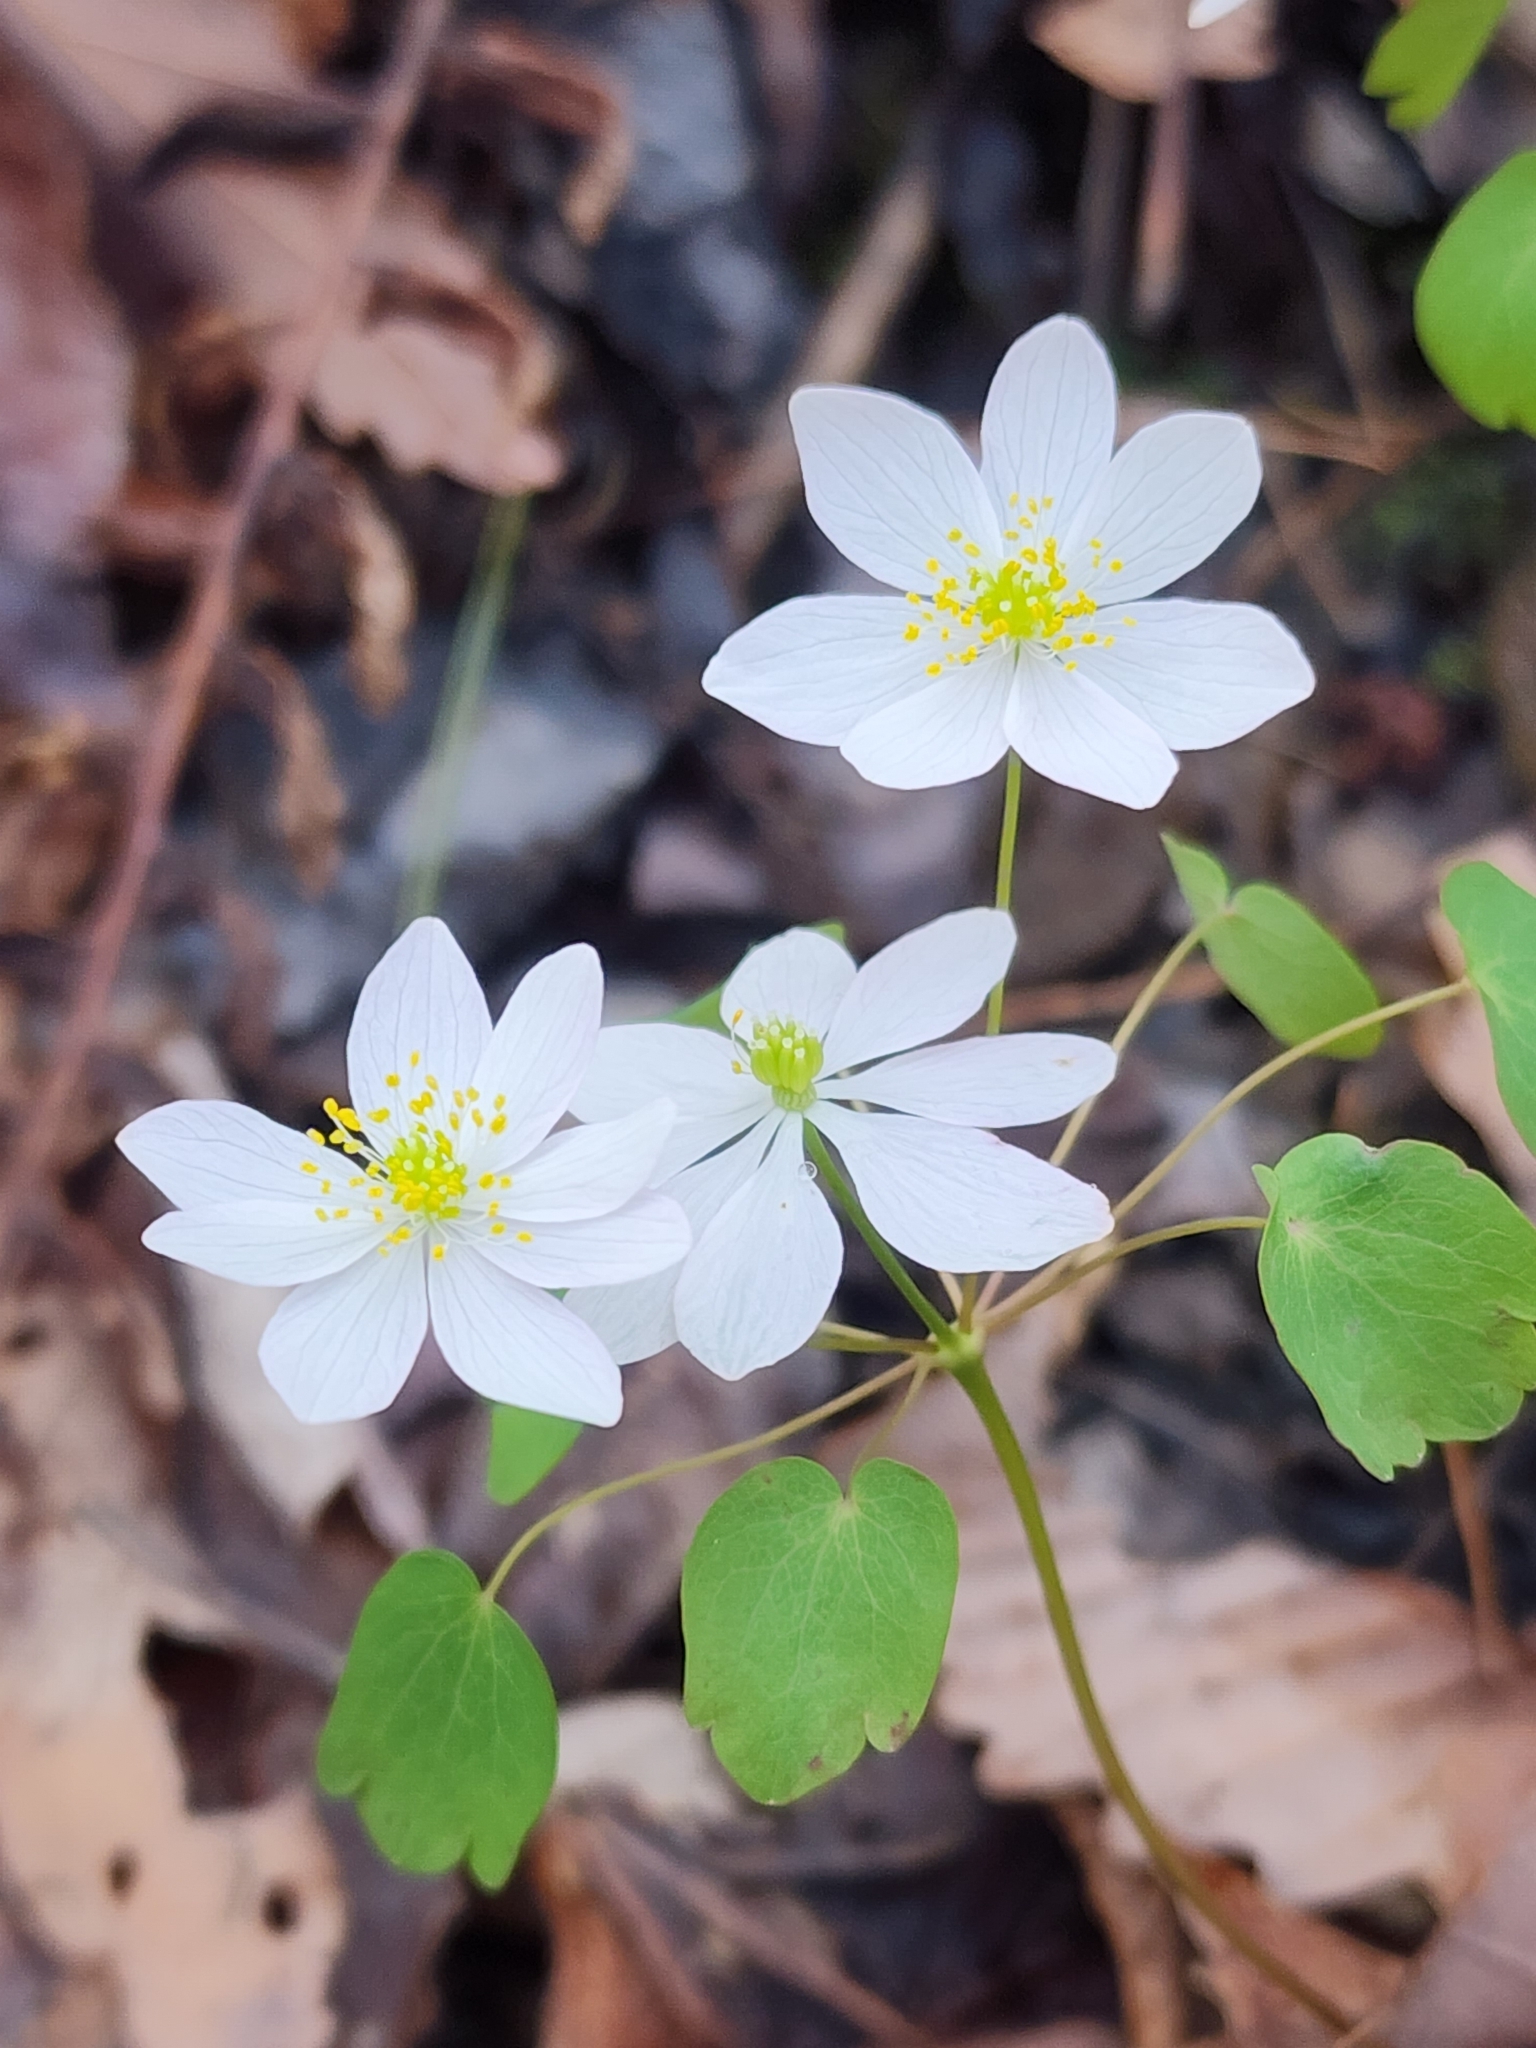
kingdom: Plantae
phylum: Tracheophyta
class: Magnoliopsida
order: Ranunculales
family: Ranunculaceae
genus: Thalictrum
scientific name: Thalictrum thalictroides
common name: Rue-anemone
